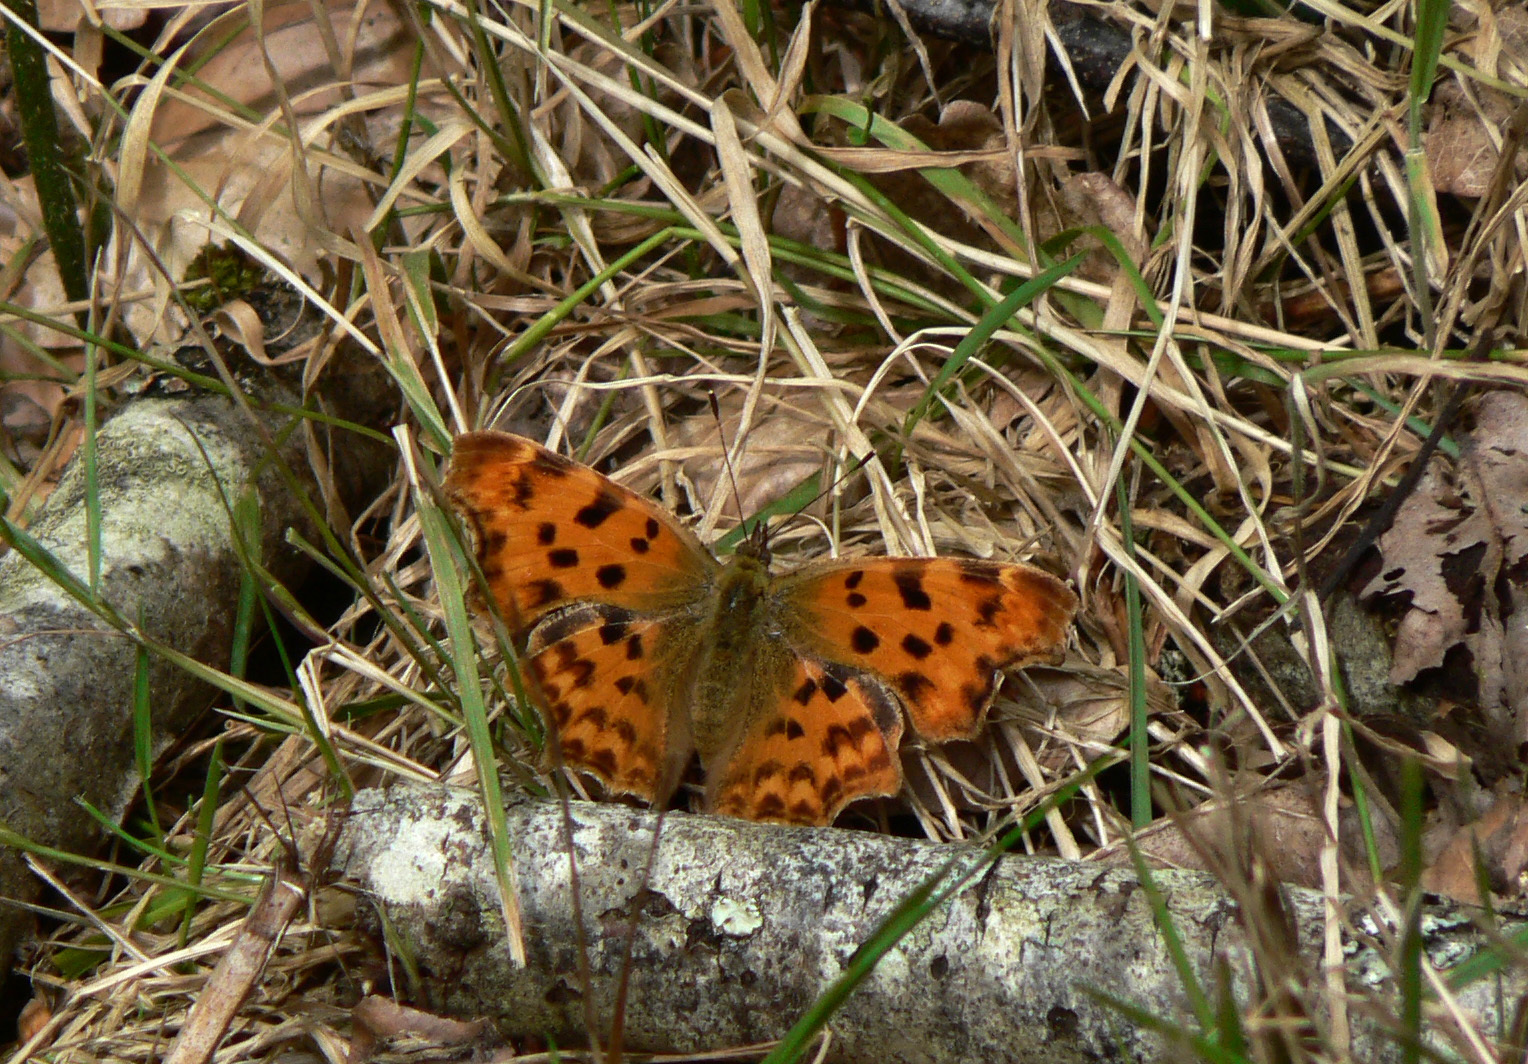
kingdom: Animalia
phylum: Arthropoda
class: Insecta
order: Lepidoptera
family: Nymphalidae
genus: Polygonia
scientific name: Polygonia c-album
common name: Comma
